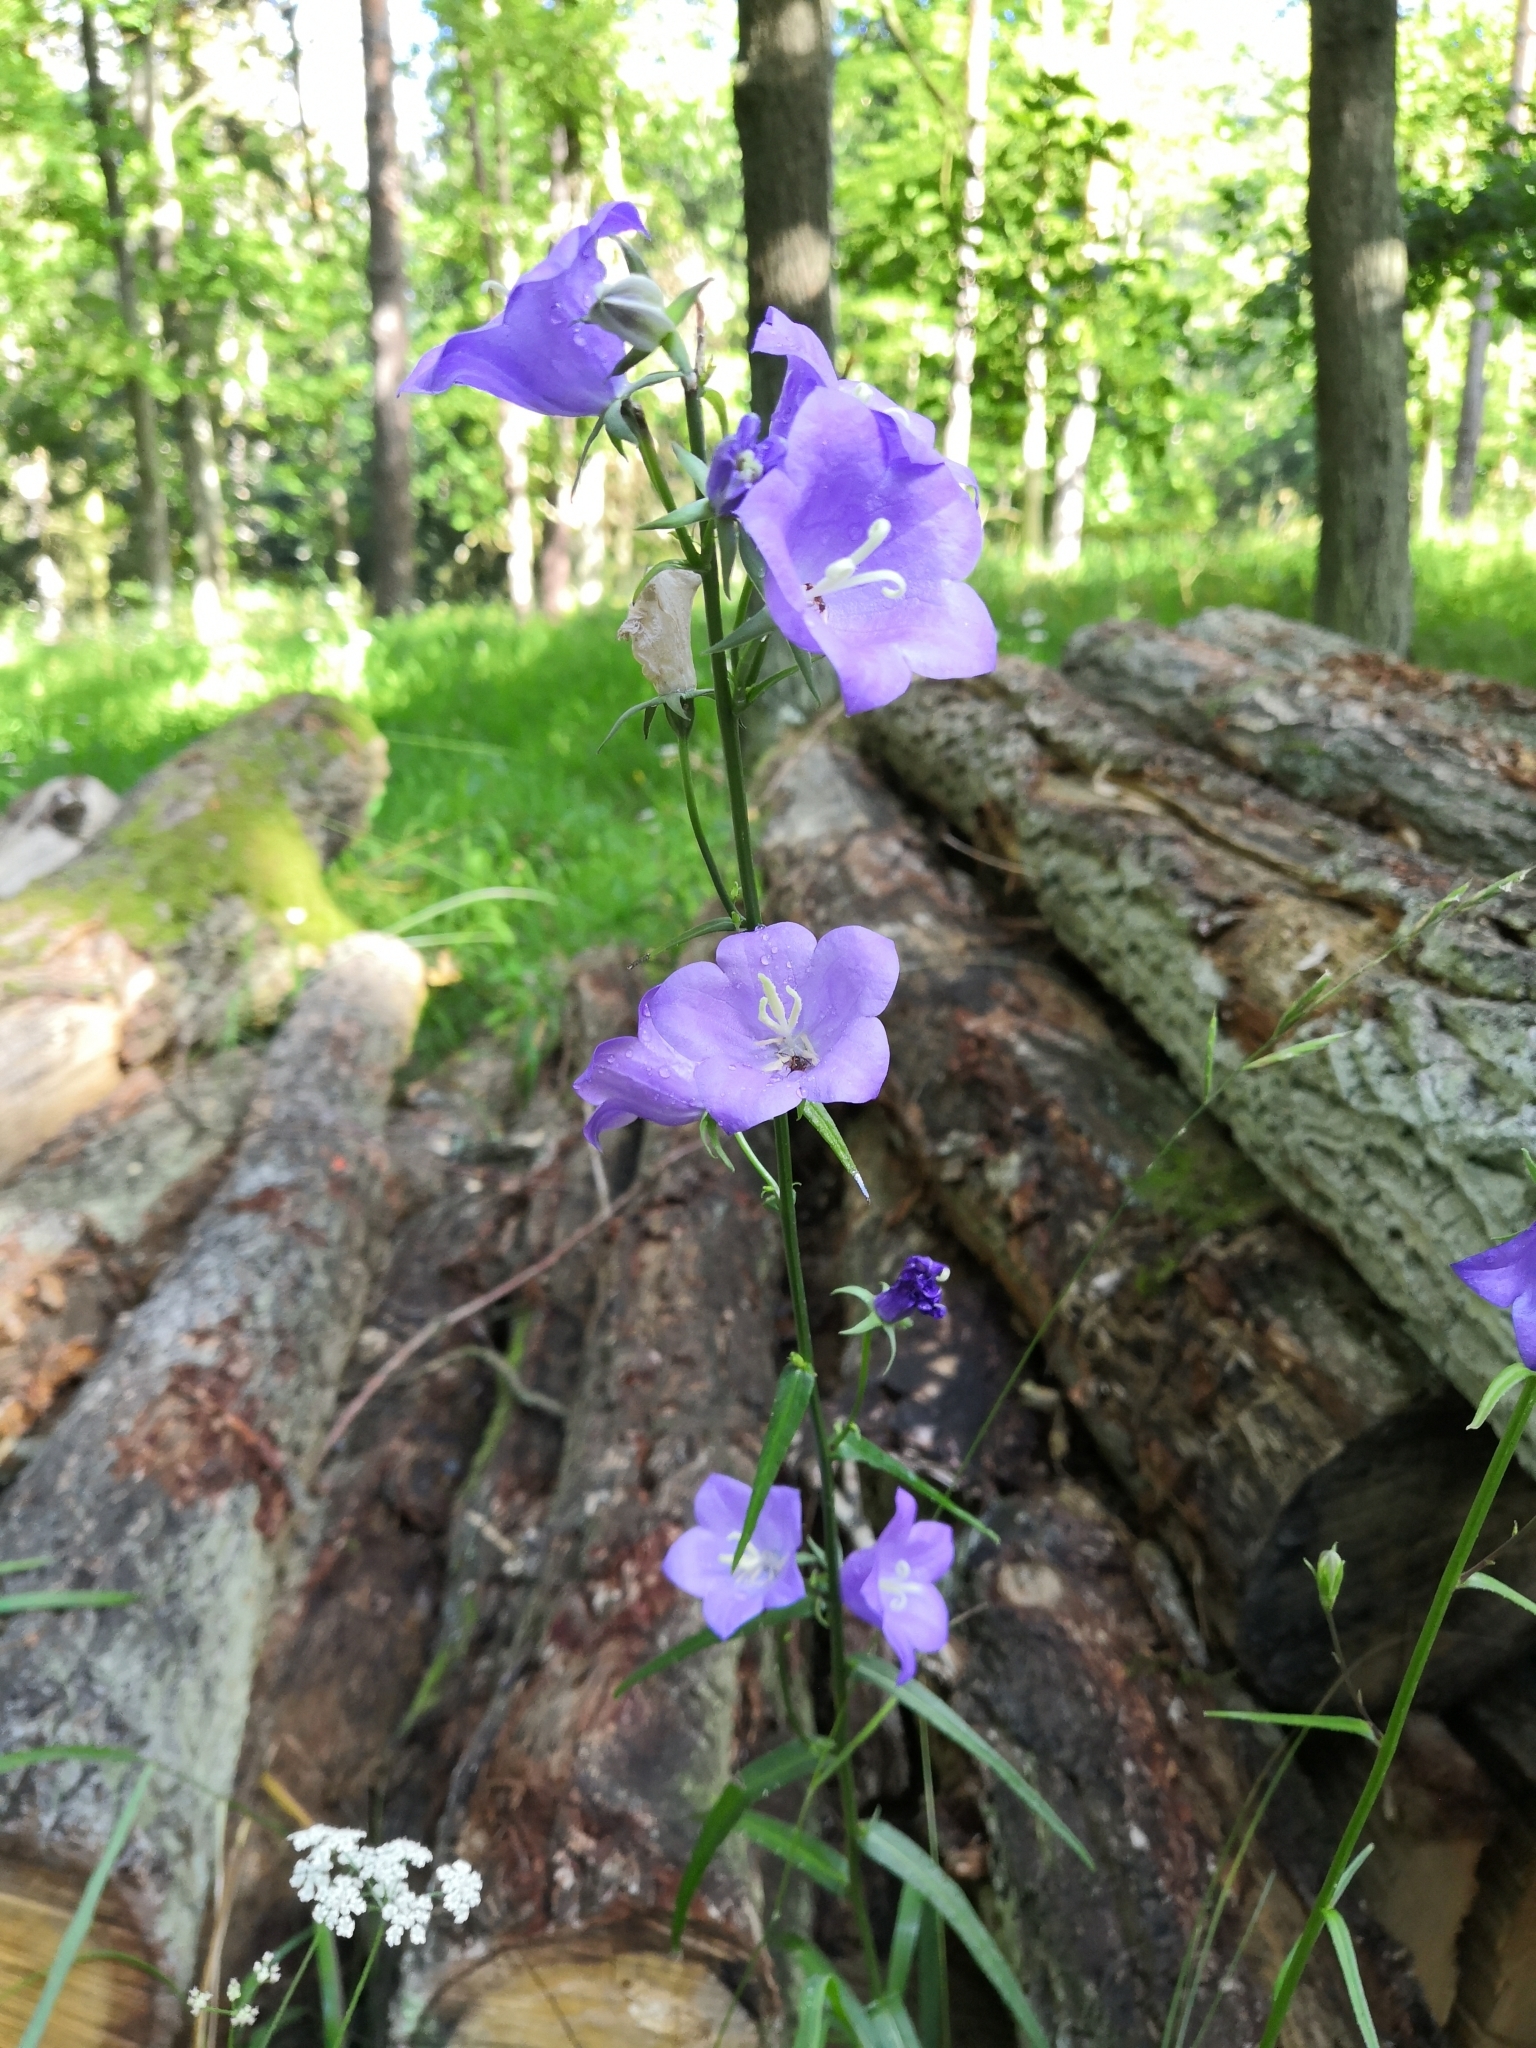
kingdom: Plantae
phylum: Tracheophyta
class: Magnoliopsida
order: Asterales
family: Campanulaceae
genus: Campanula
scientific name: Campanula persicifolia
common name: Peach-leaved bellflower
